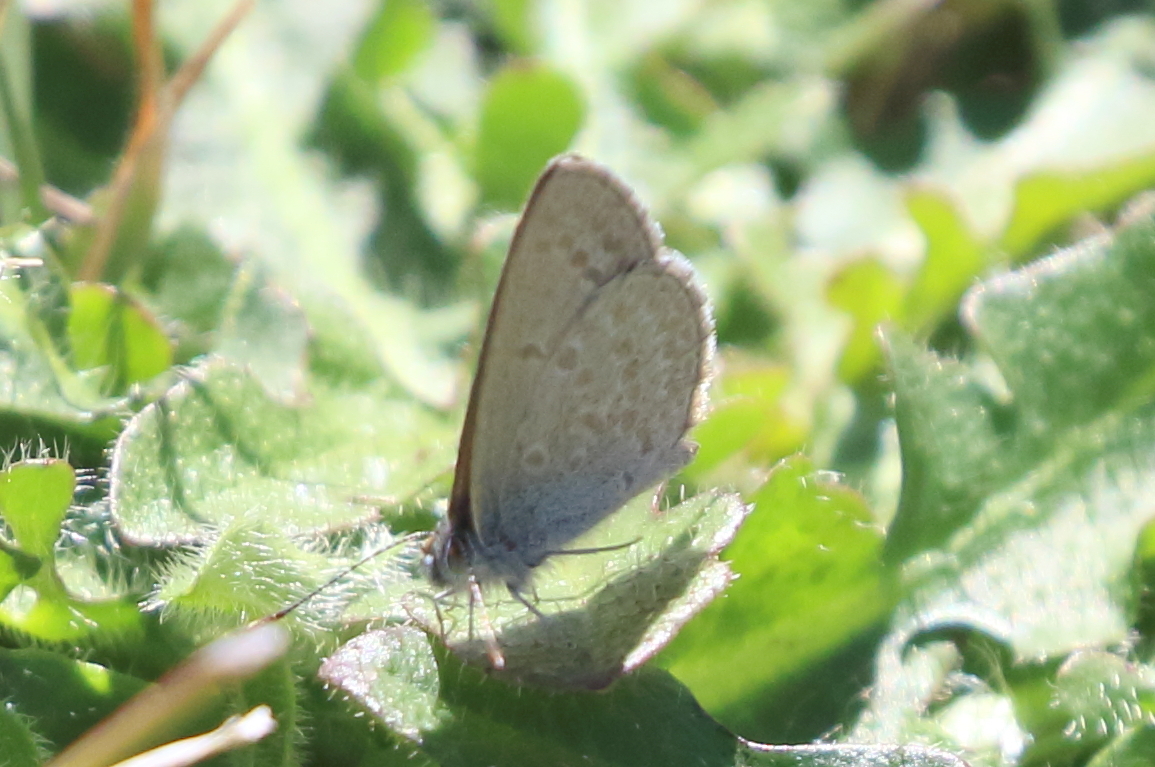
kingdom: Animalia
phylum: Arthropoda
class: Insecta
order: Lepidoptera
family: Lycaenidae
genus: Zizina
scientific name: Zizina labradus
